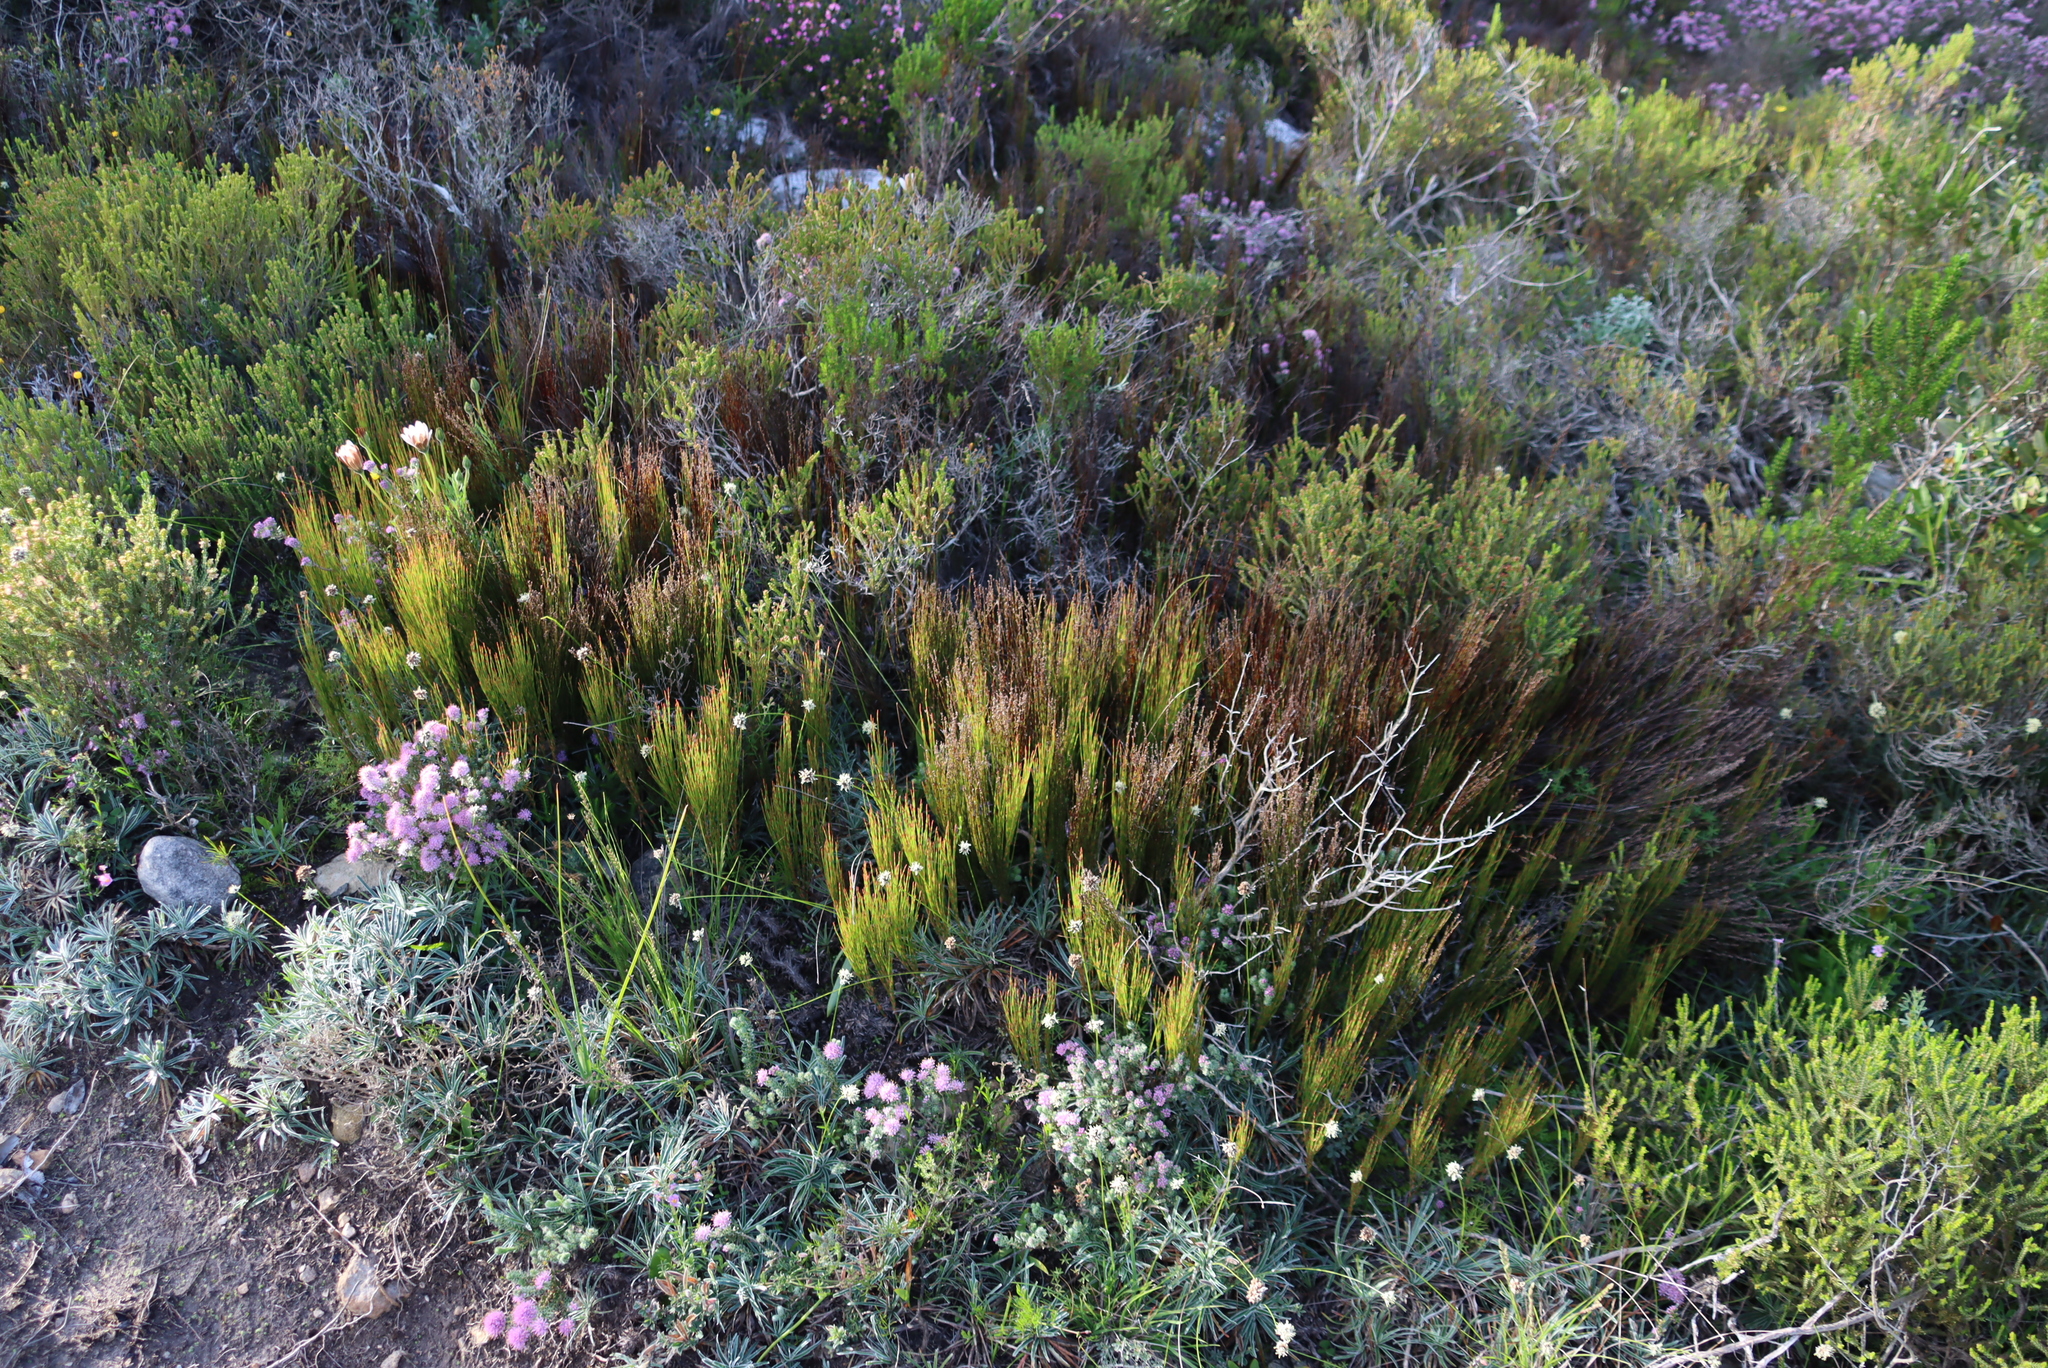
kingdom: Plantae
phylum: Tracheophyta
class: Liliopsida
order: Poales
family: Restionaceae
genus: Elegia
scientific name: Elegia microcarpa
